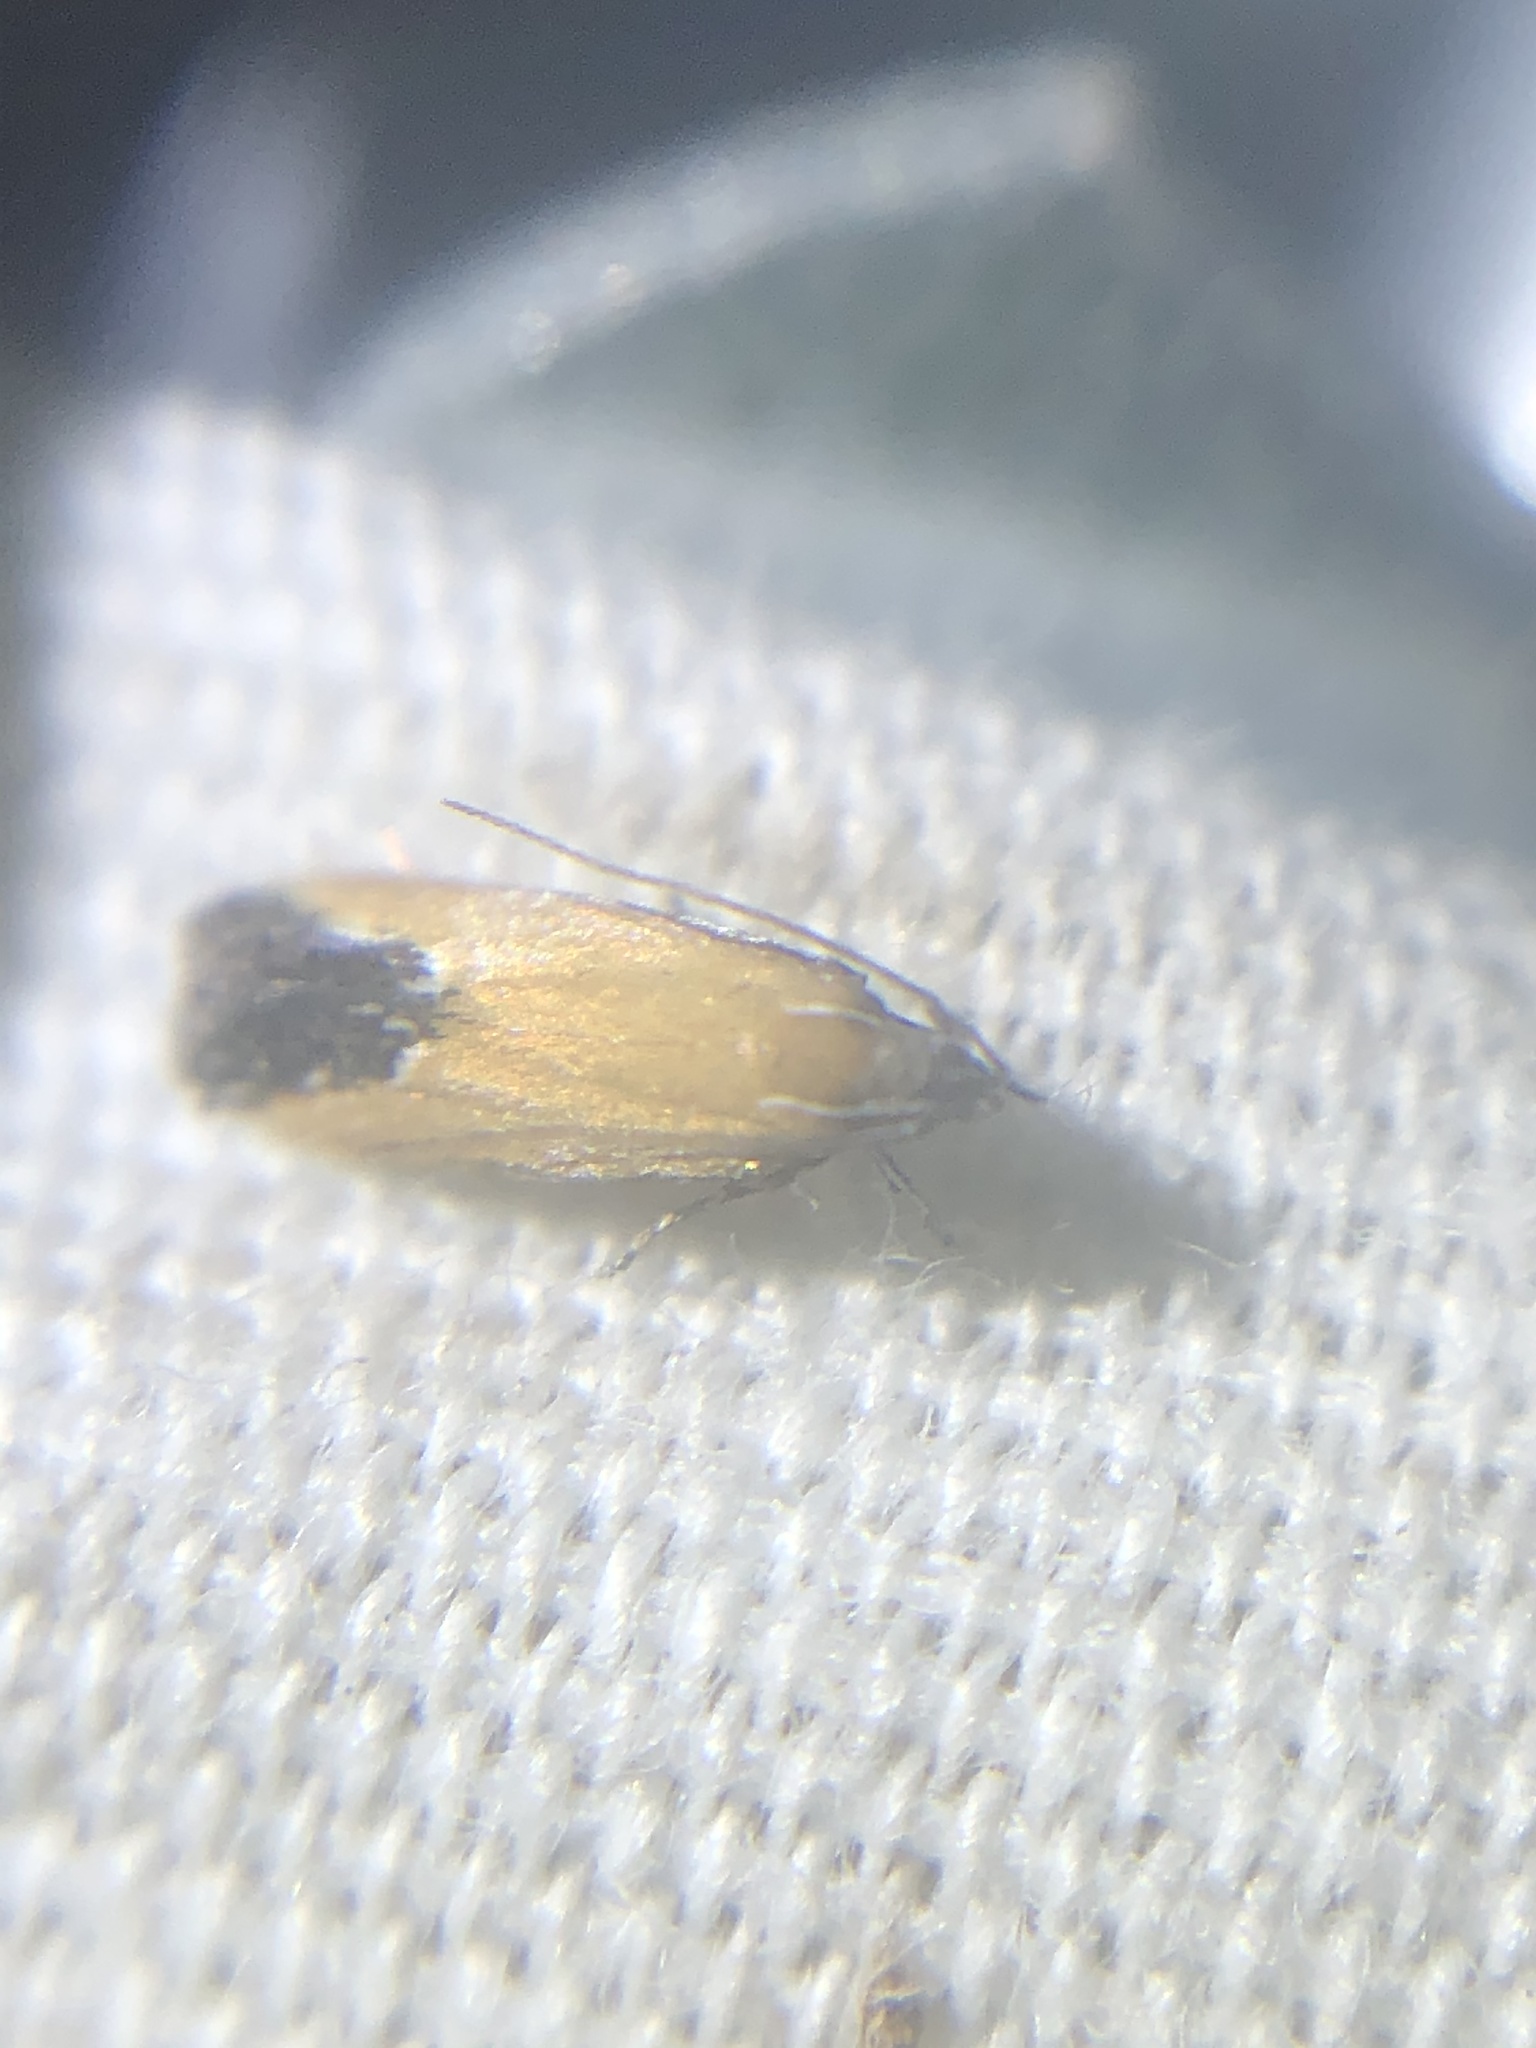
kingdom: Animalia
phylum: Arthropoda
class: Insecta
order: Lepidoptera
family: Momphidae
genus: Triclonella
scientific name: Triclonella pergandeella
